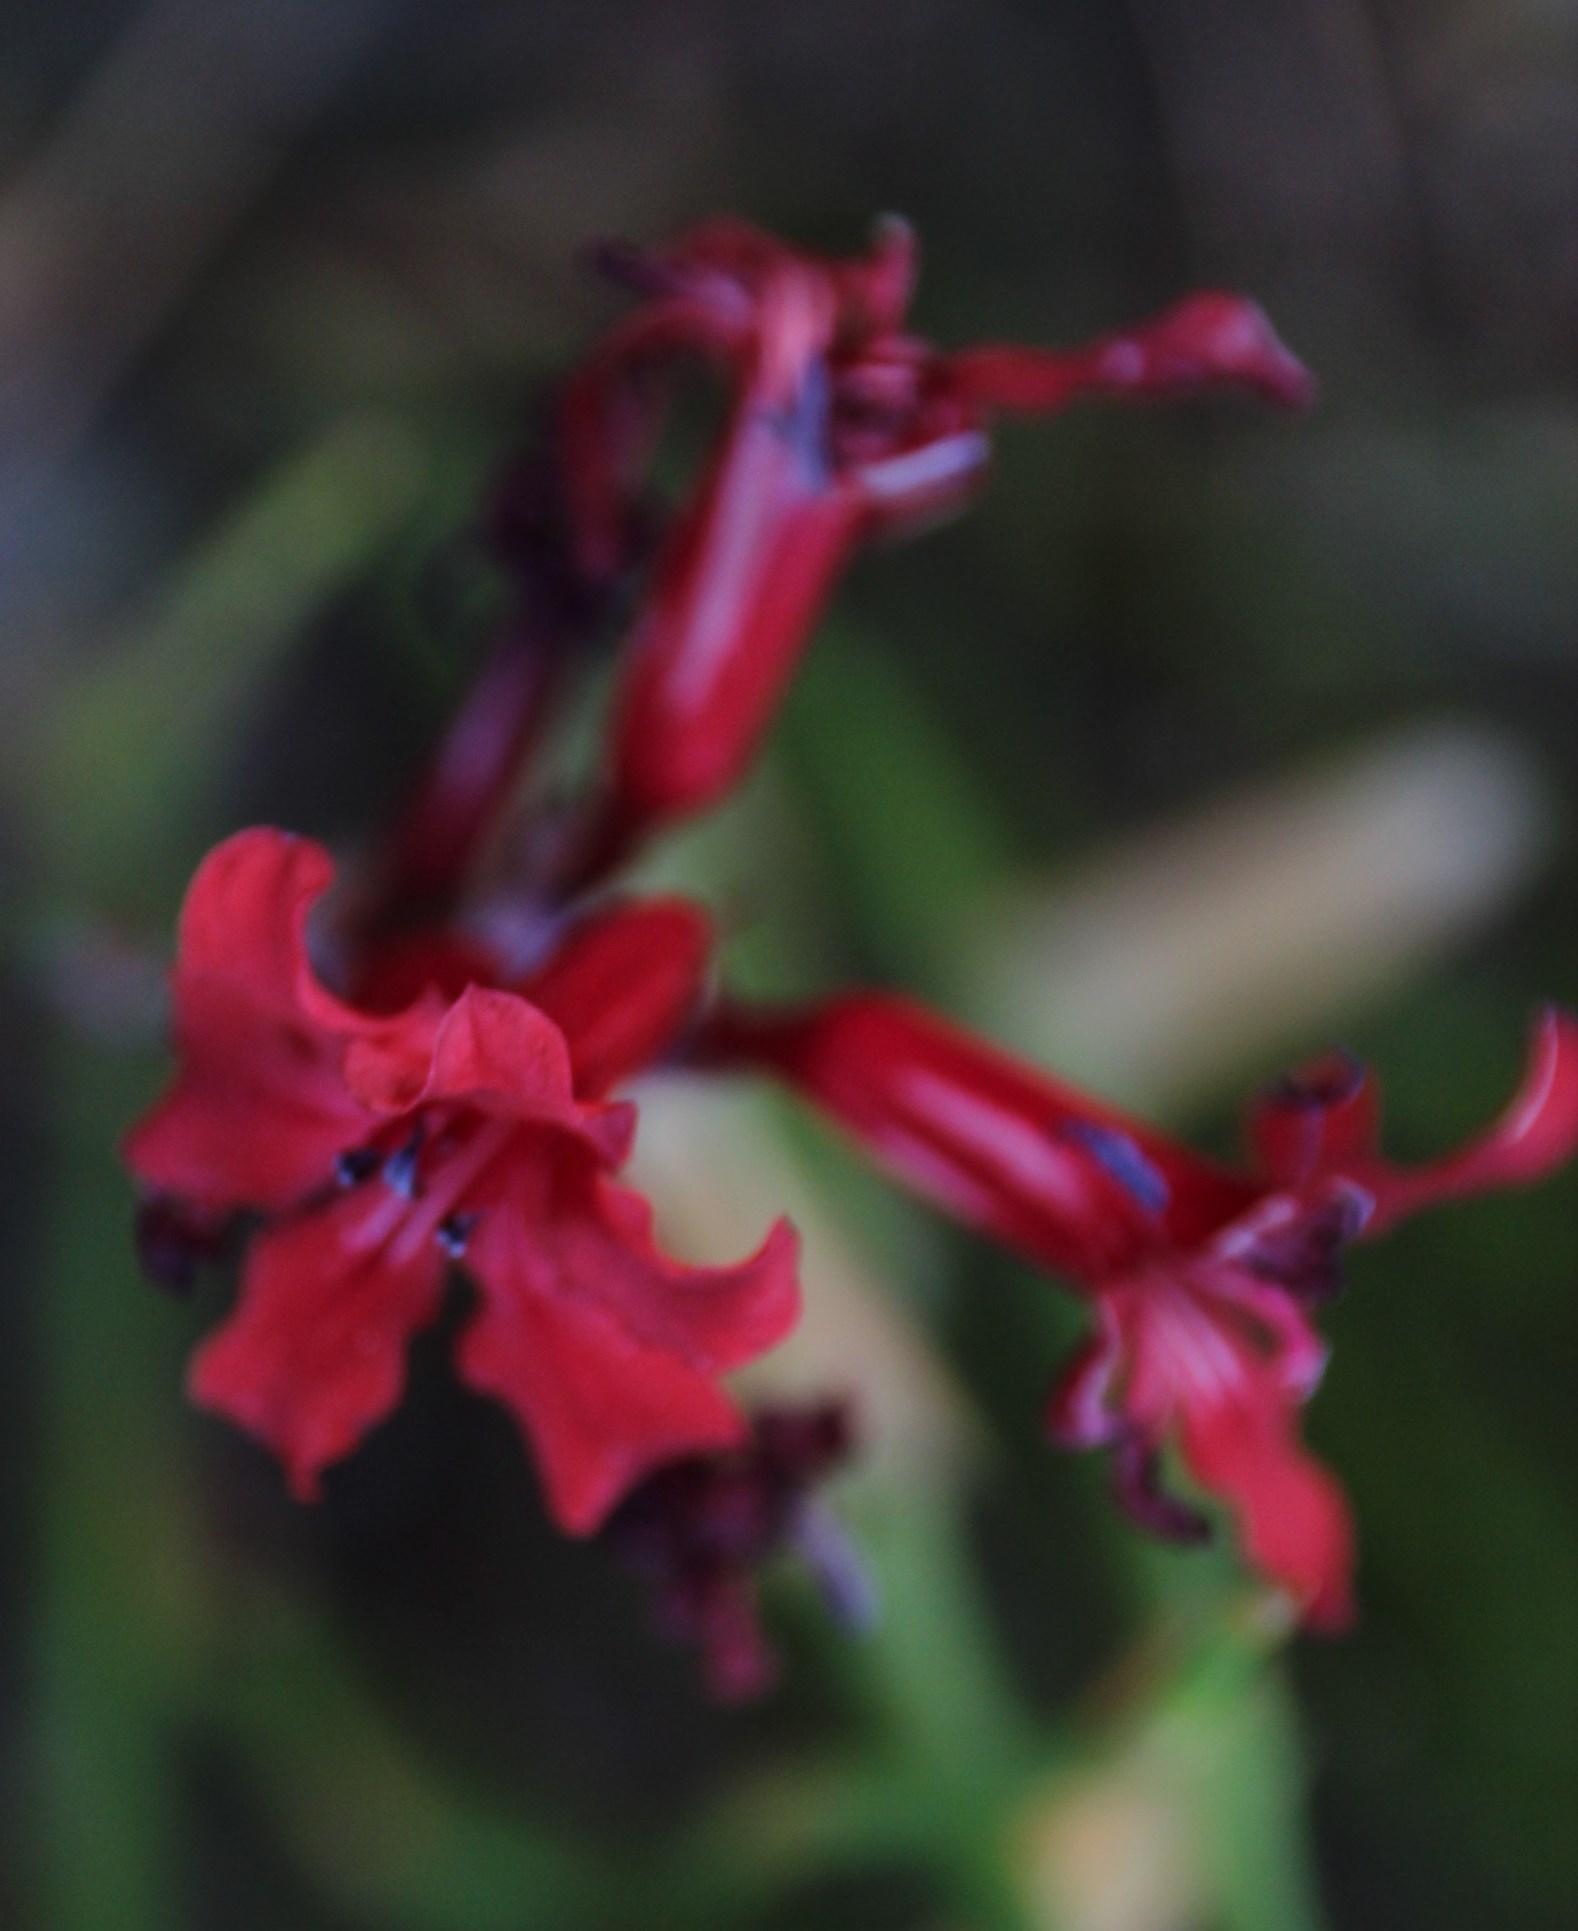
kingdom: Plantae
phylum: Tracheophyta
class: Liliopsida
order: Asparagales
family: Iridaceae
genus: Tritoniopsis
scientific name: Tritoniopsis pulchra
